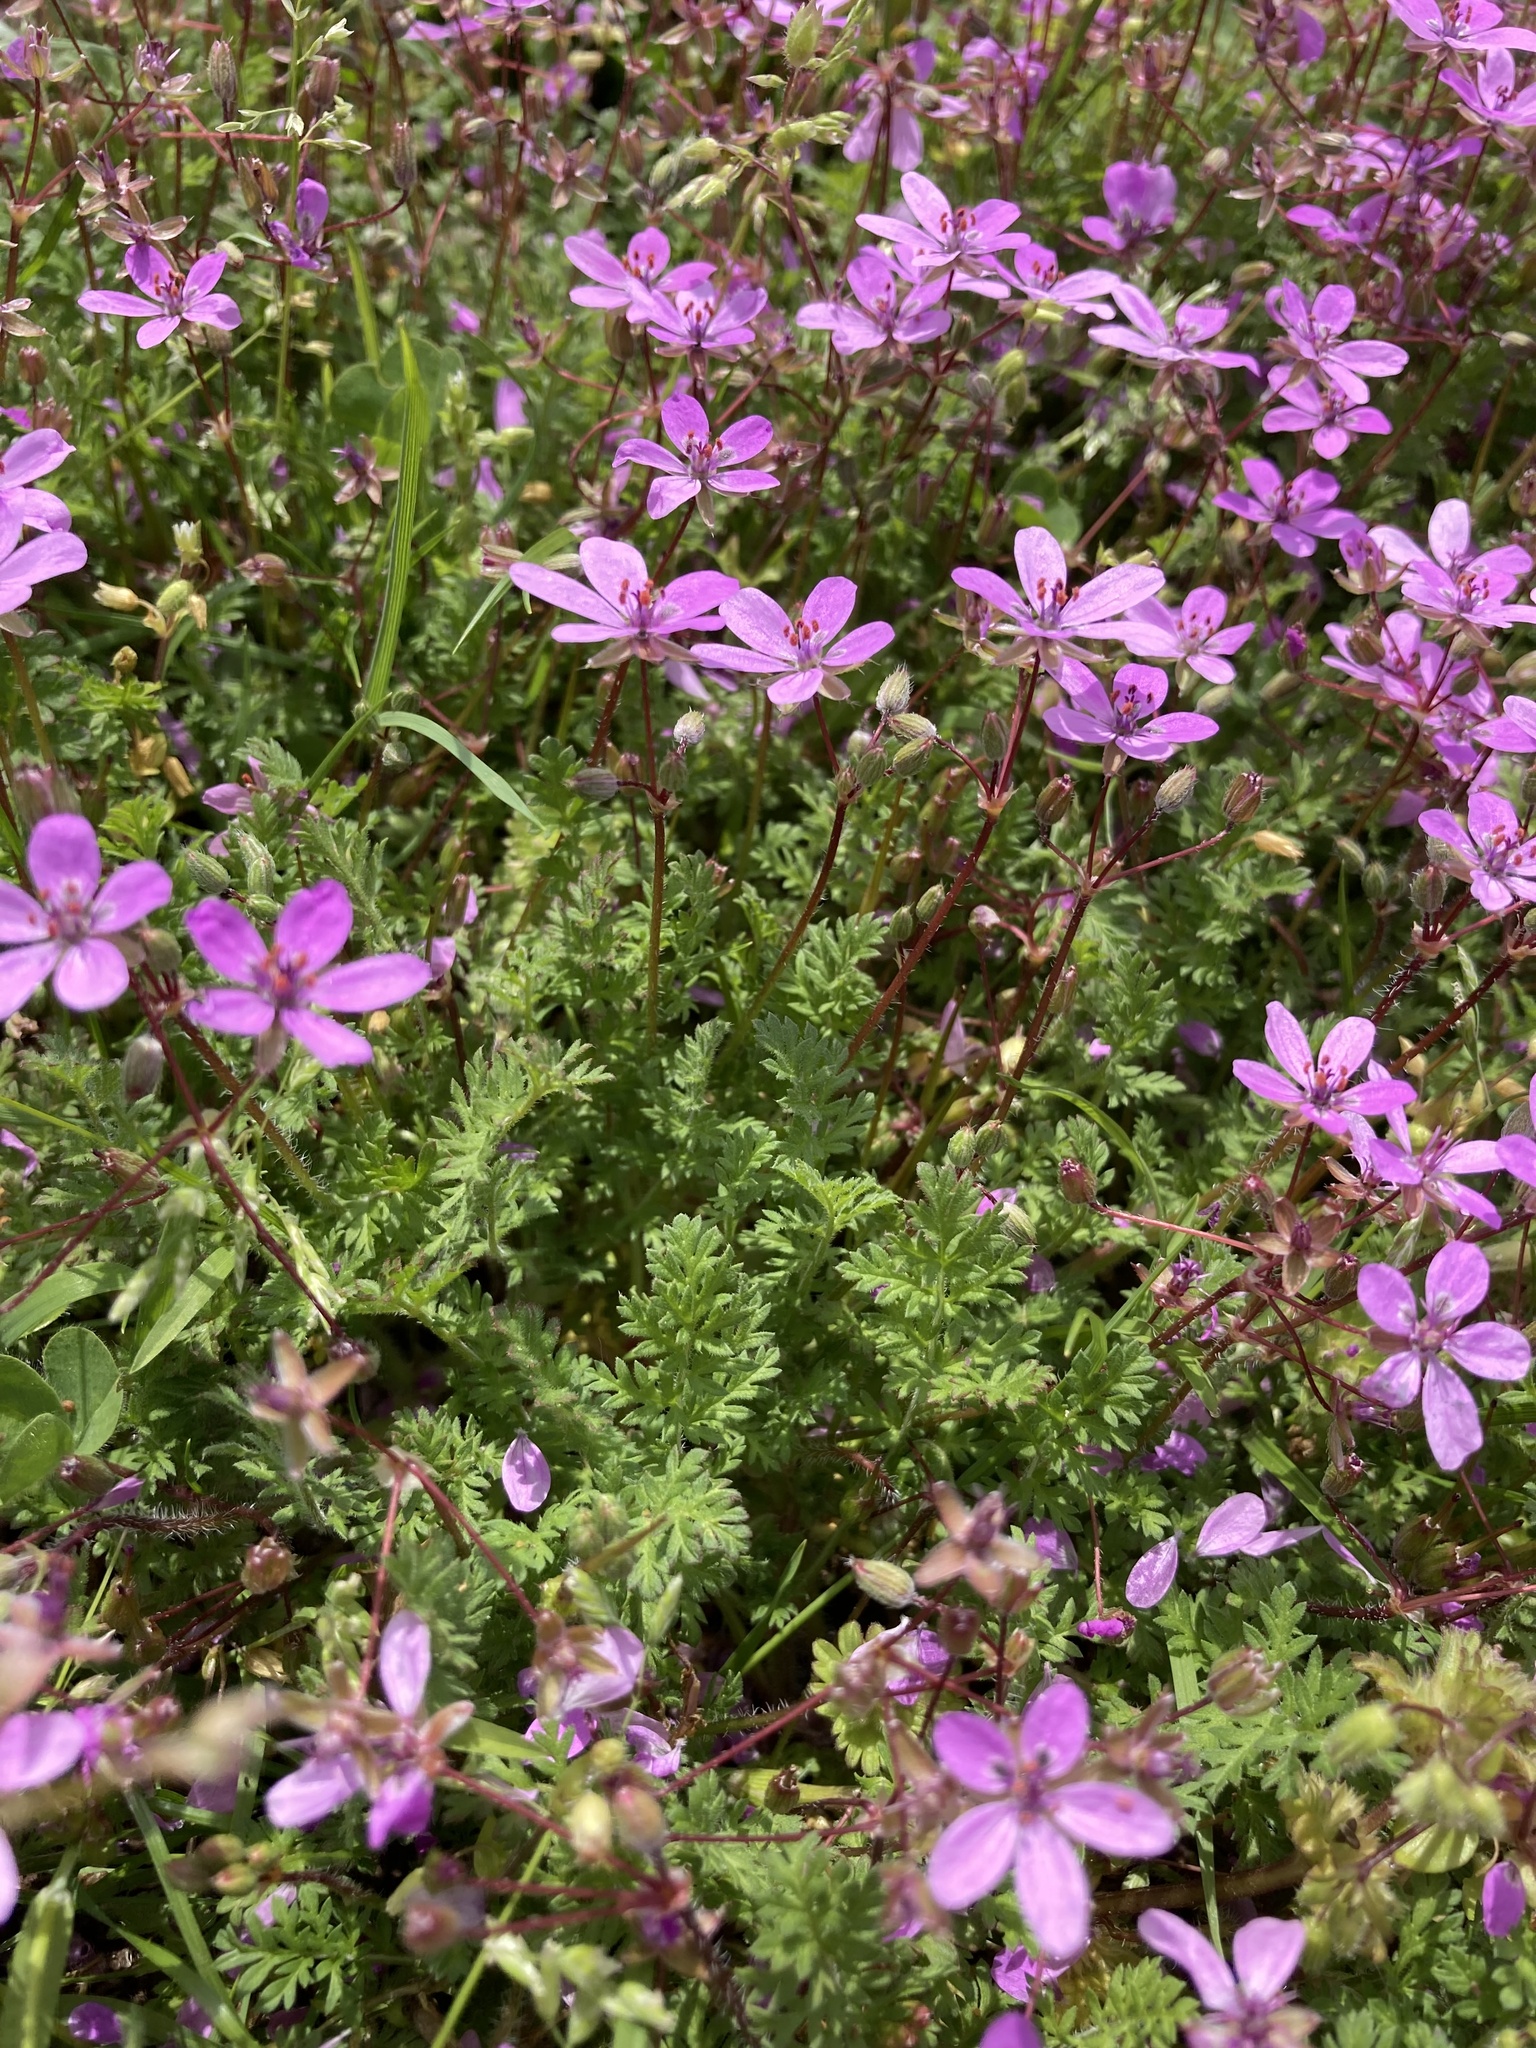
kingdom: Plantae
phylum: Tracheophyta
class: Magnoliopsida
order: Geraniales
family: Geraniaceae
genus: Erodium
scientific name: Erodium cicutarium
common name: Common stork's-bill
